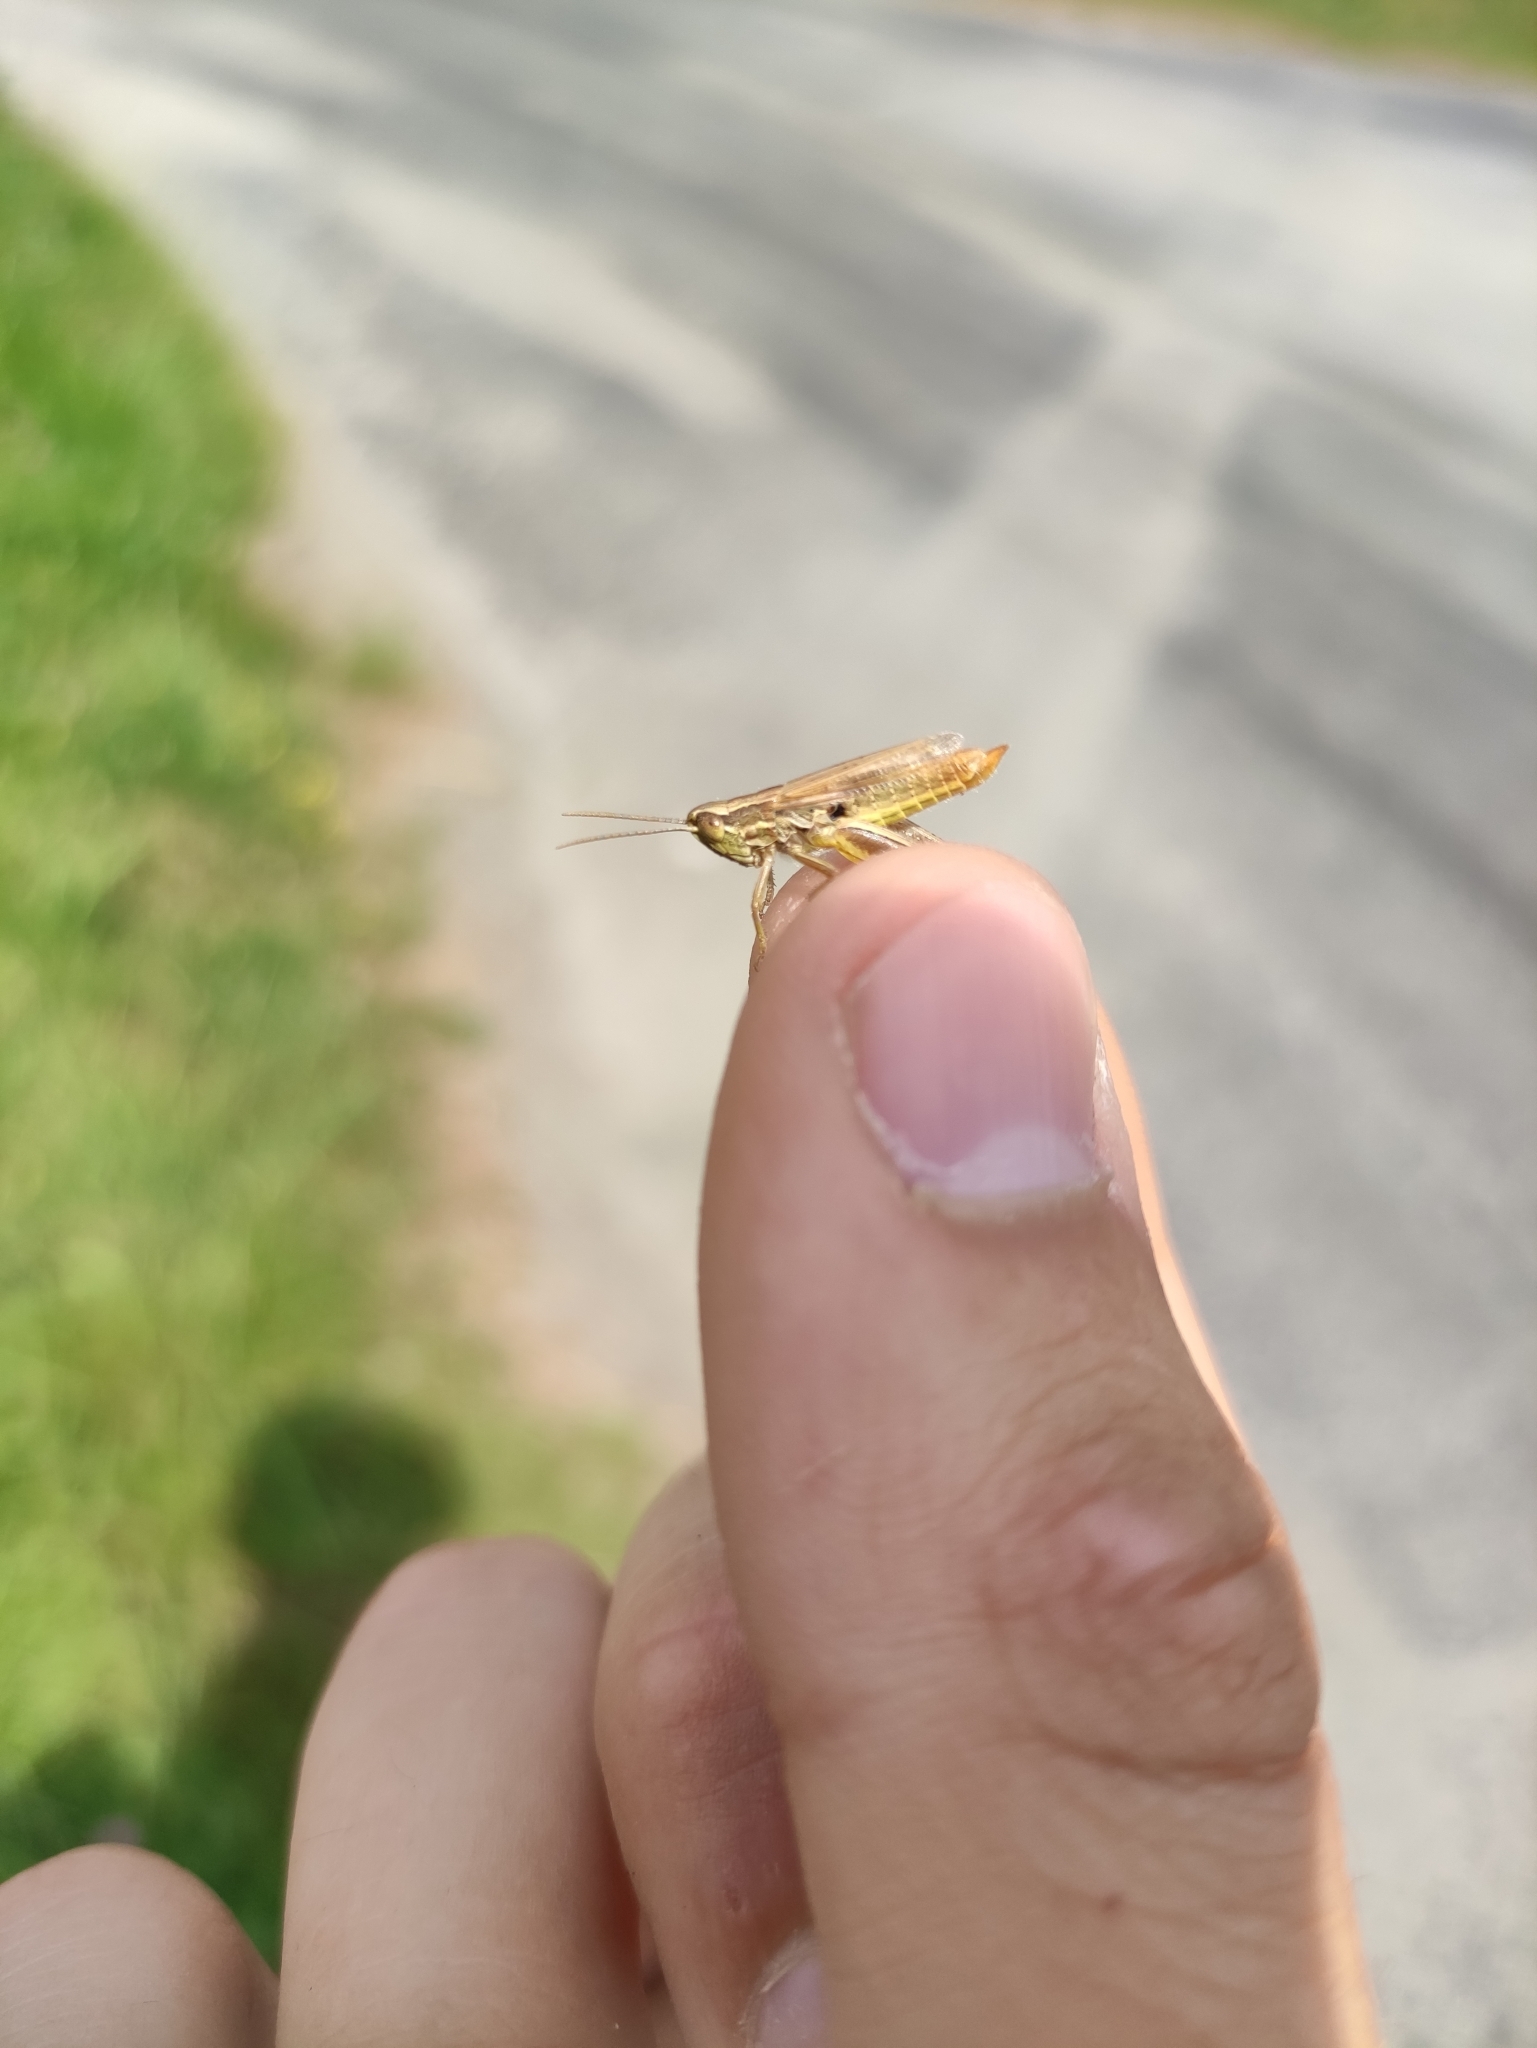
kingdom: Animalia
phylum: Arthropoda
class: Insecta
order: Orthoptera
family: Acrididae
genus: Euchorthippus
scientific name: Euchorthippus elegantulus
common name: Elegant straw grasshopper
